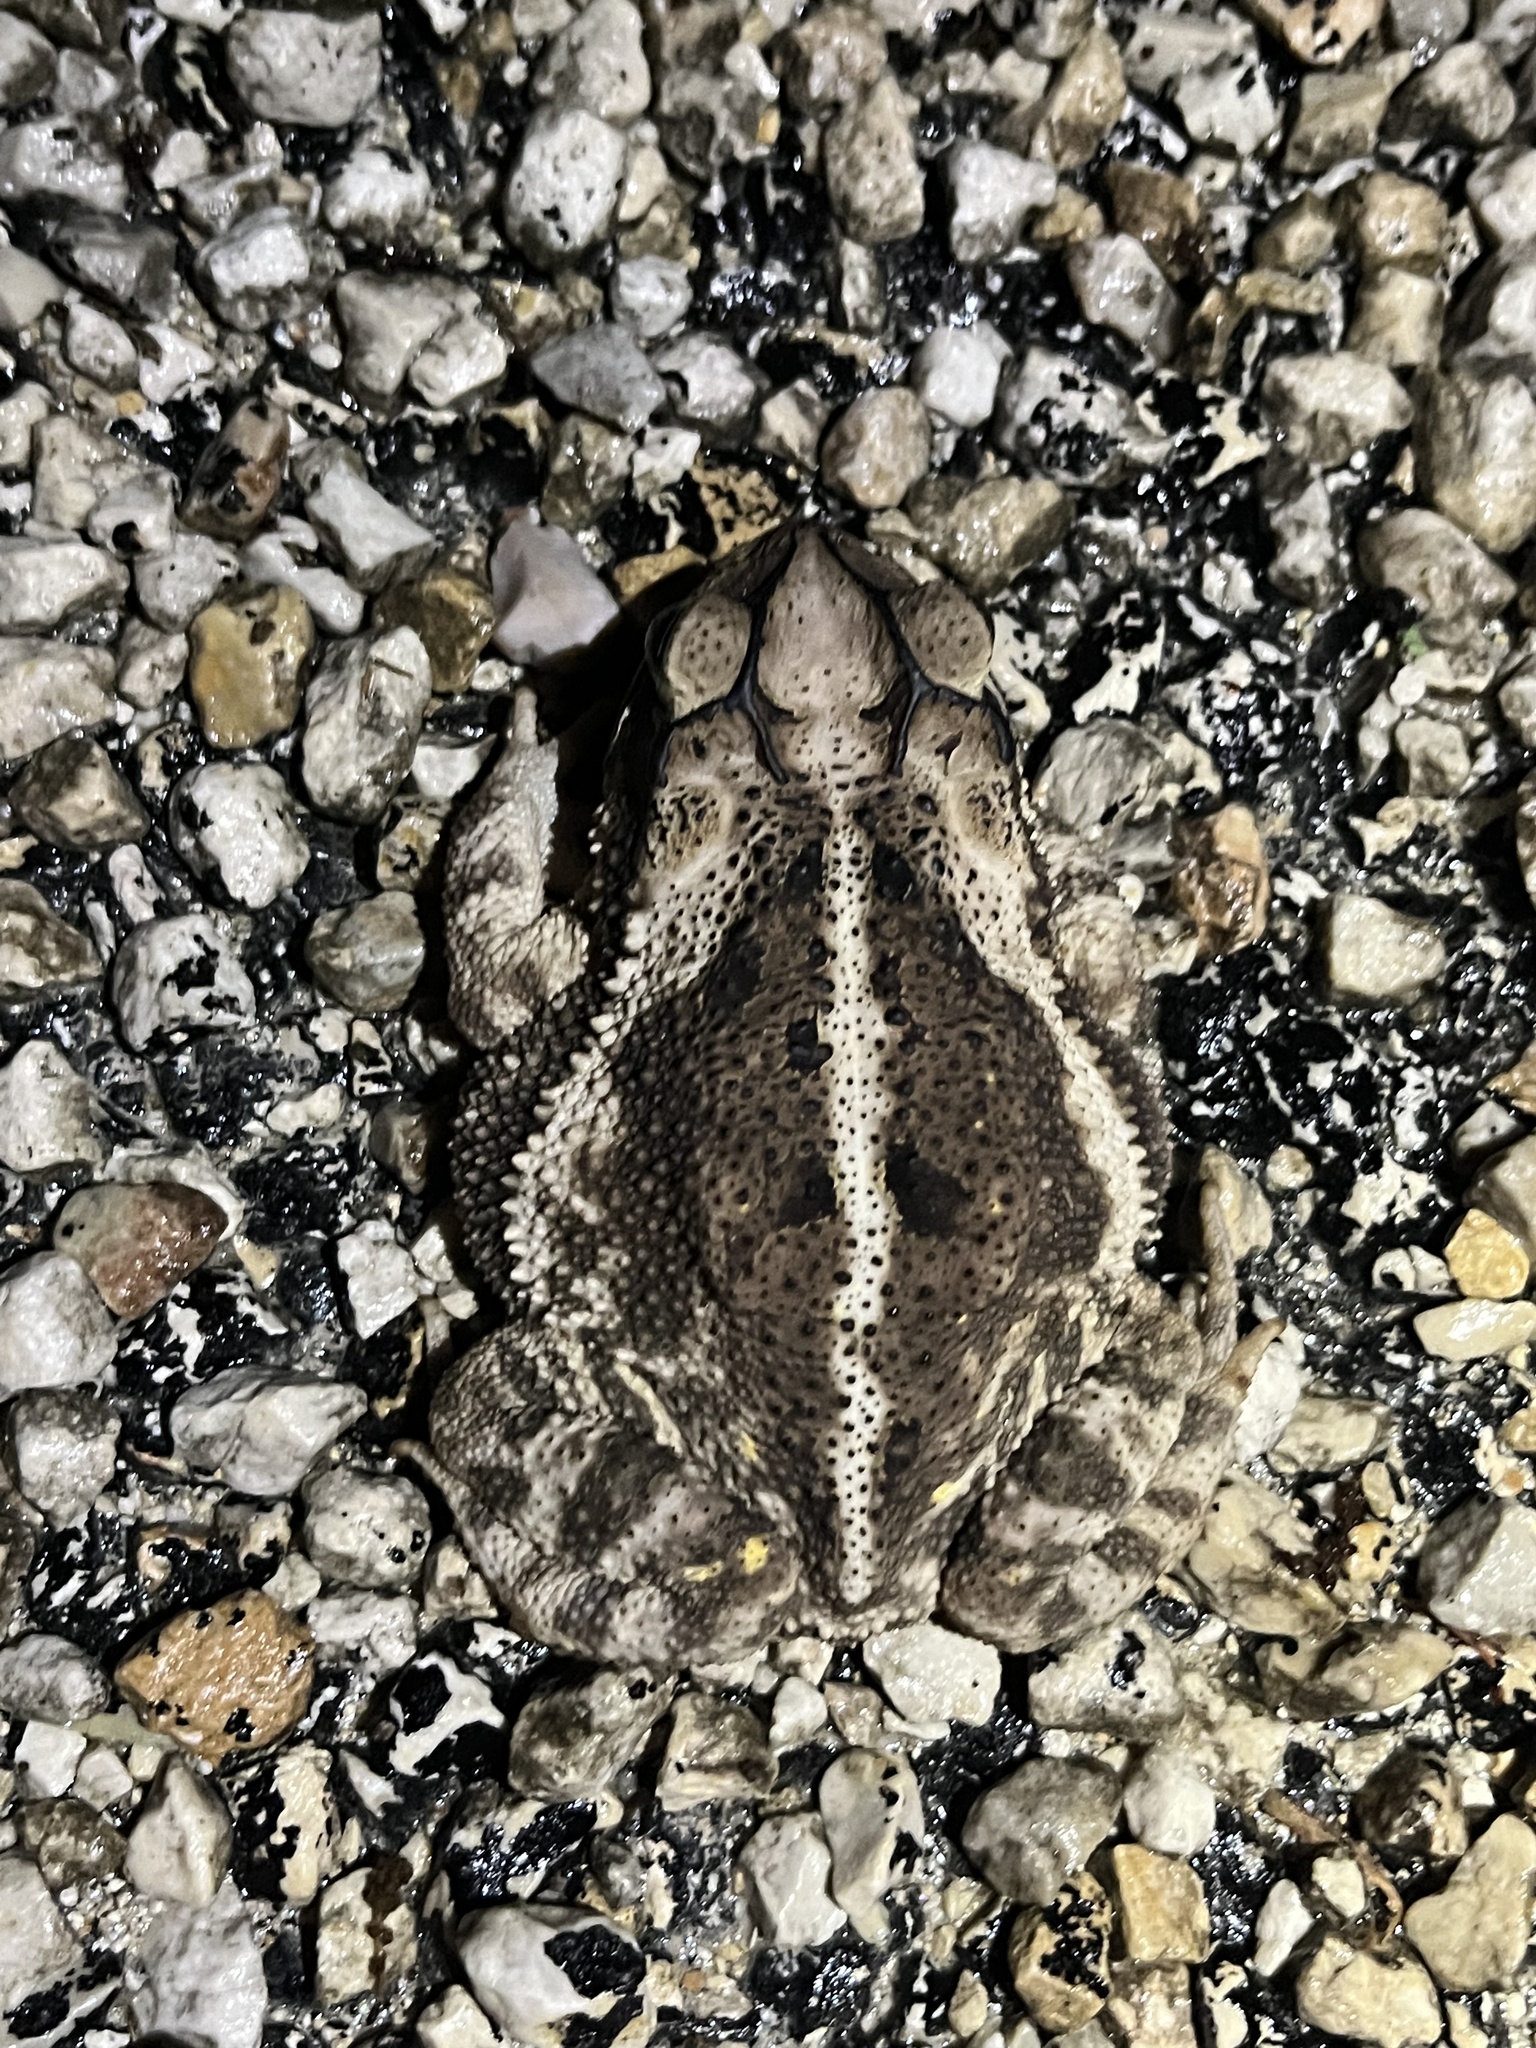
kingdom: Animalia
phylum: Chordata
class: Amphibia
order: Anura
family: Bufonidae
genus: Incilius
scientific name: Incilius nebulifer
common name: Gulf coast toad
